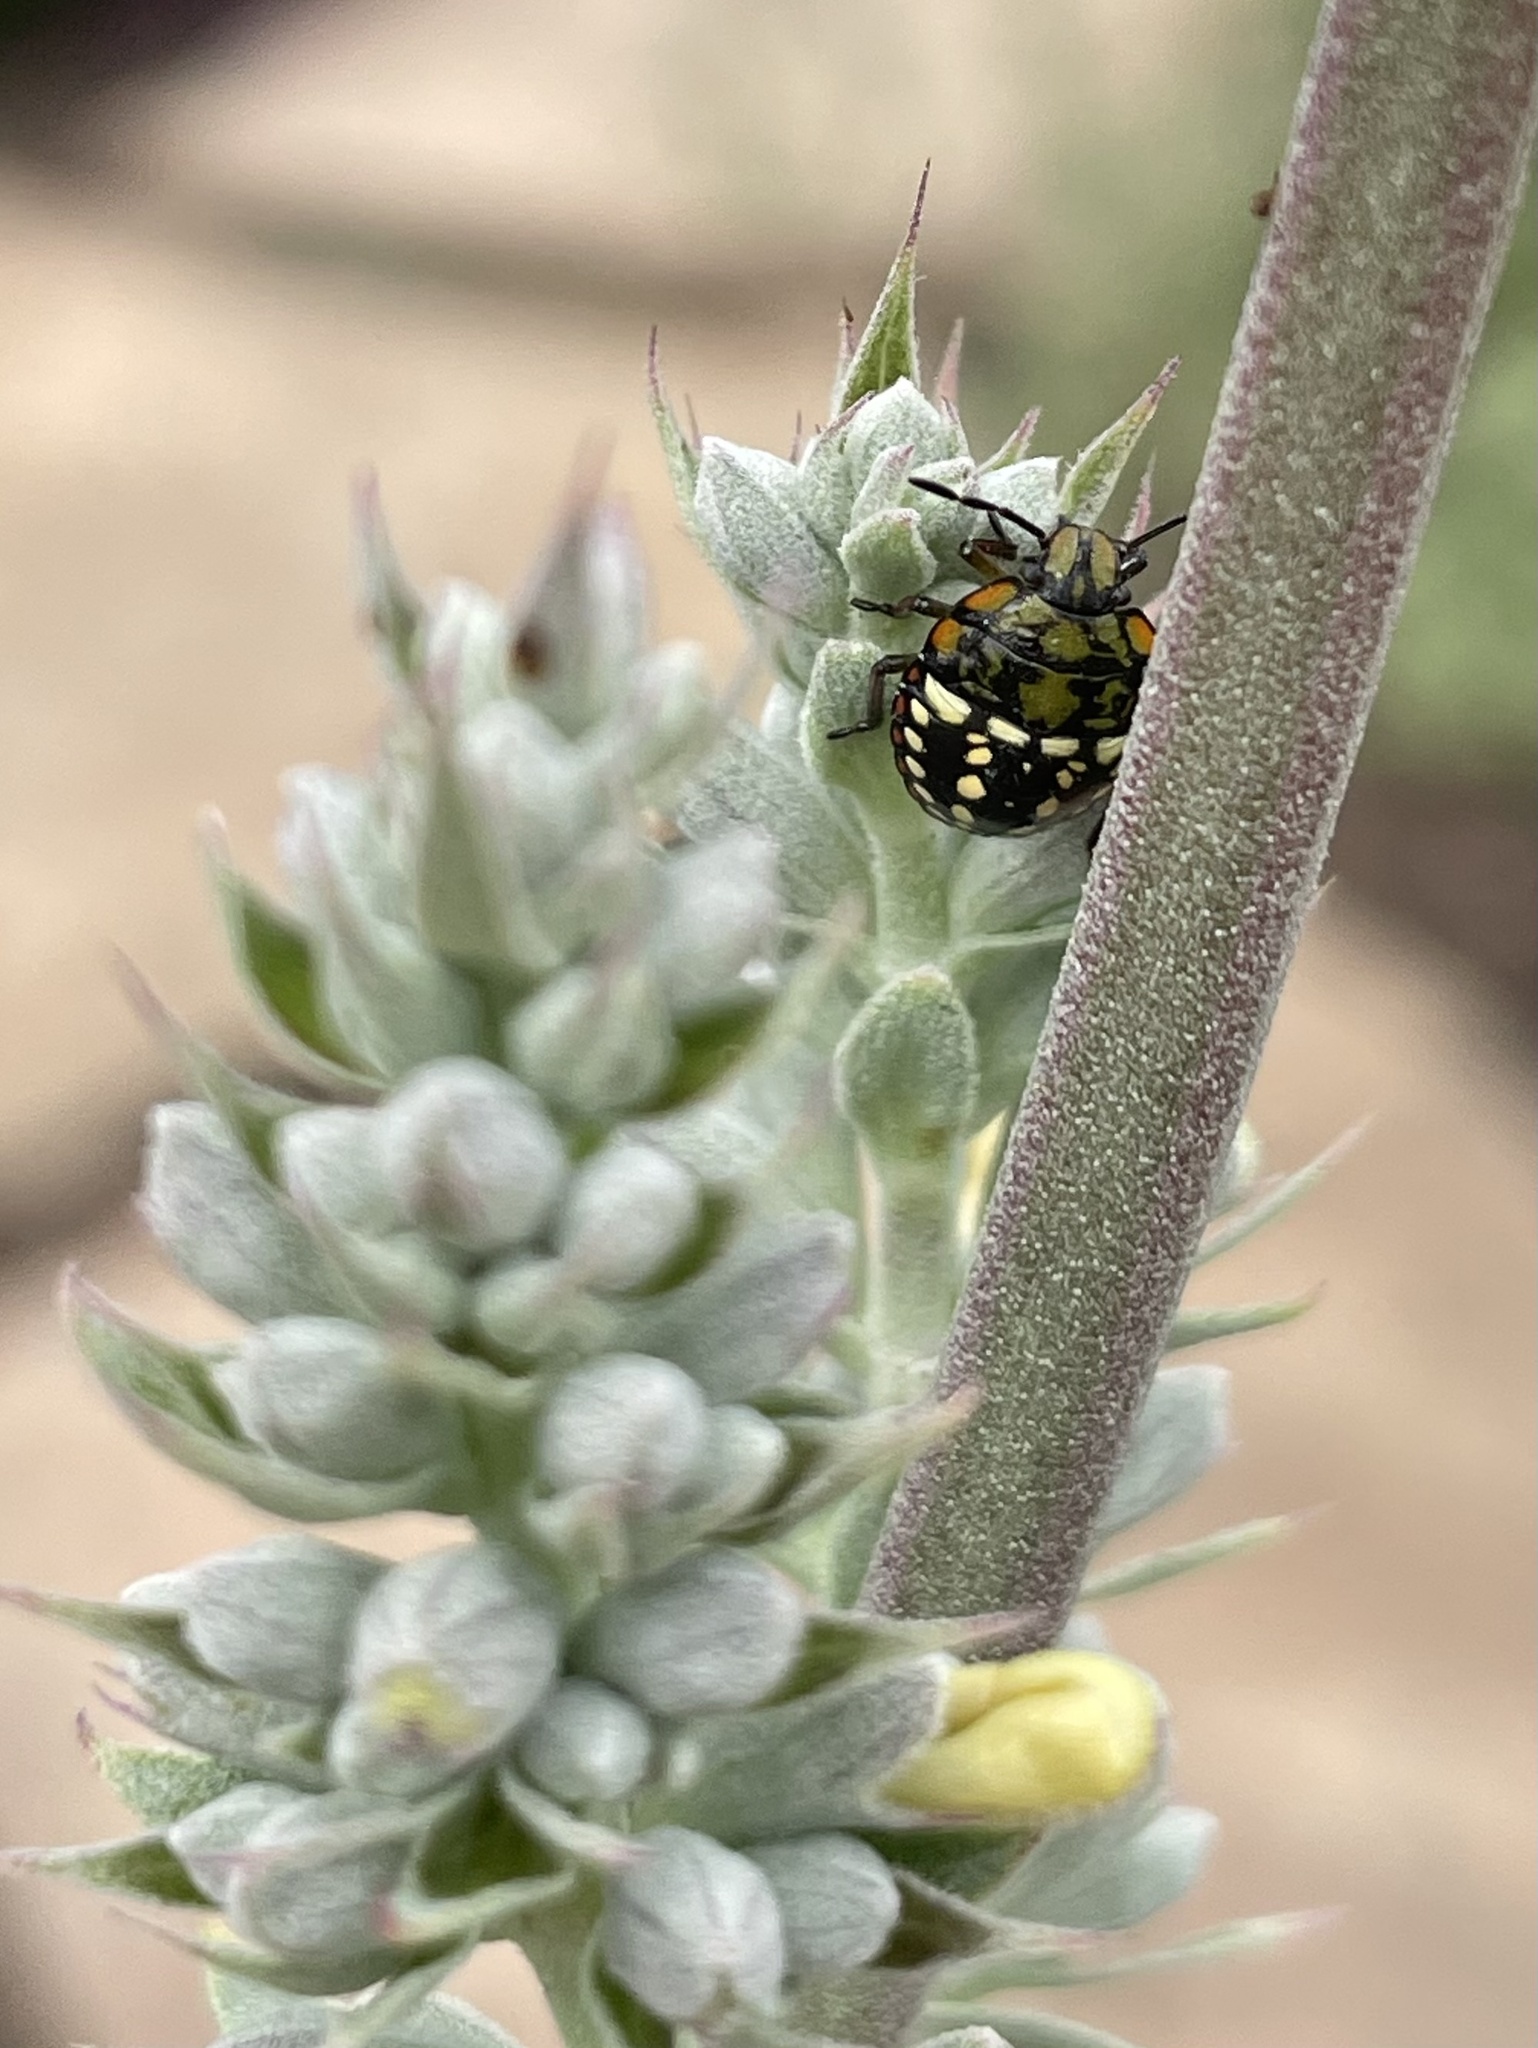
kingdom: Animalia
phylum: Arthropoda
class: Insecta
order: Hemiptera
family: Pentatomidae
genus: Nezara
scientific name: Nezara viridula
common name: Southern green stink bug
